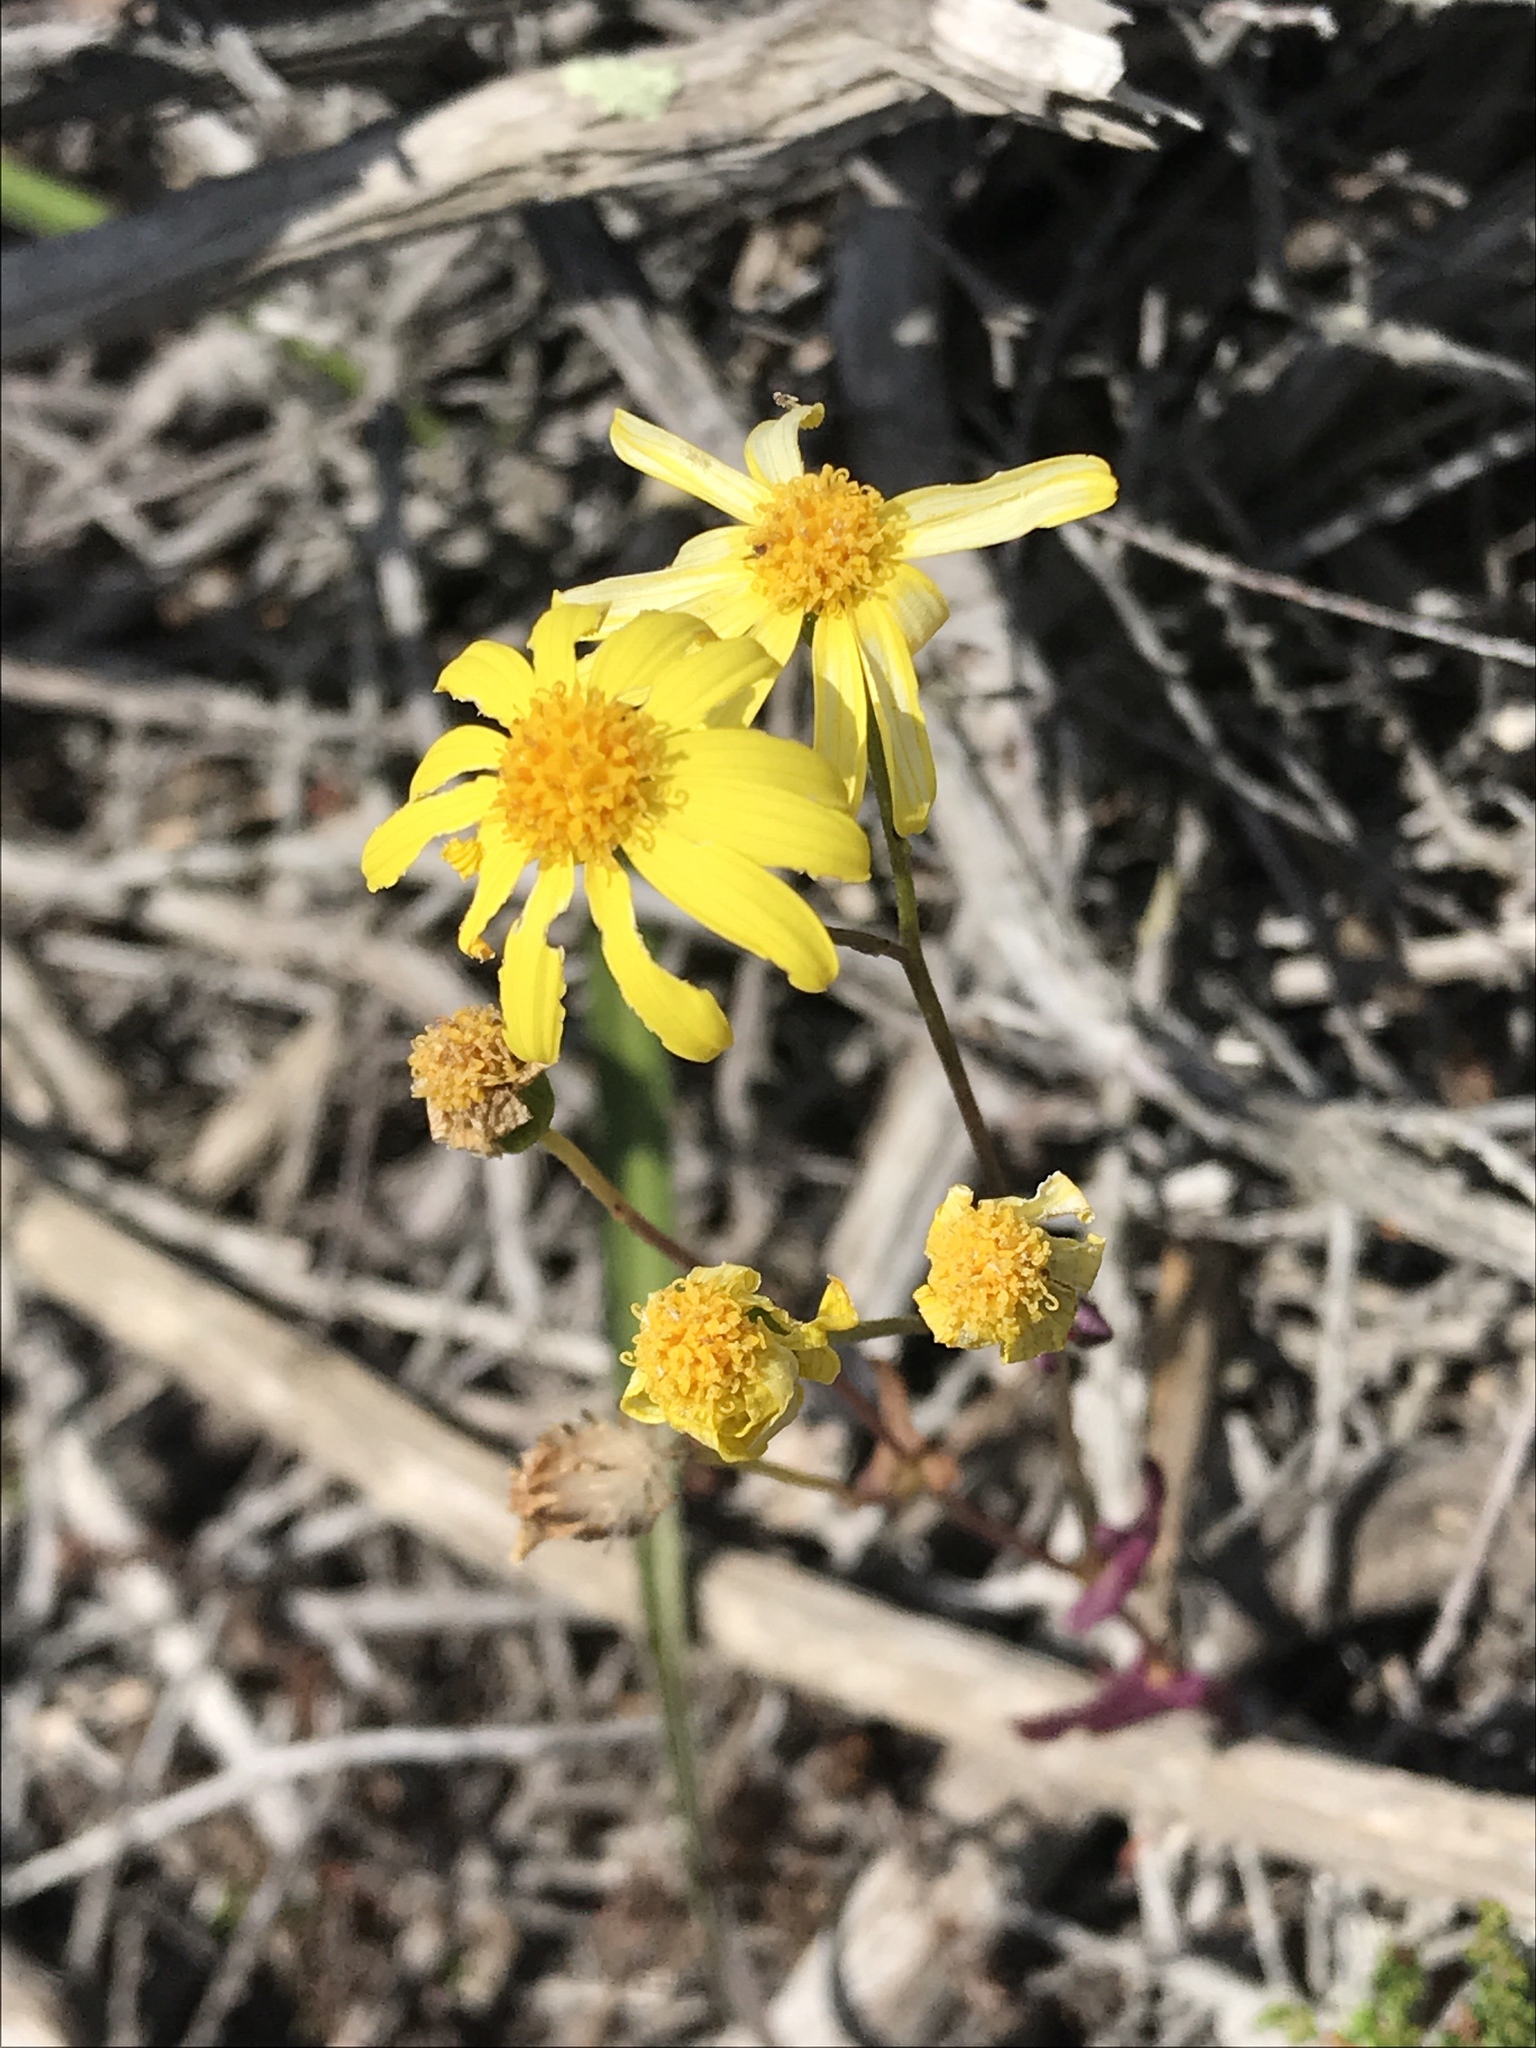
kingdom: Plantae
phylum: Tracheophyta
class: Magnoliopsida
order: Asterales
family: Asteraceae
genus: Senecio
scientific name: Senecio californicus
